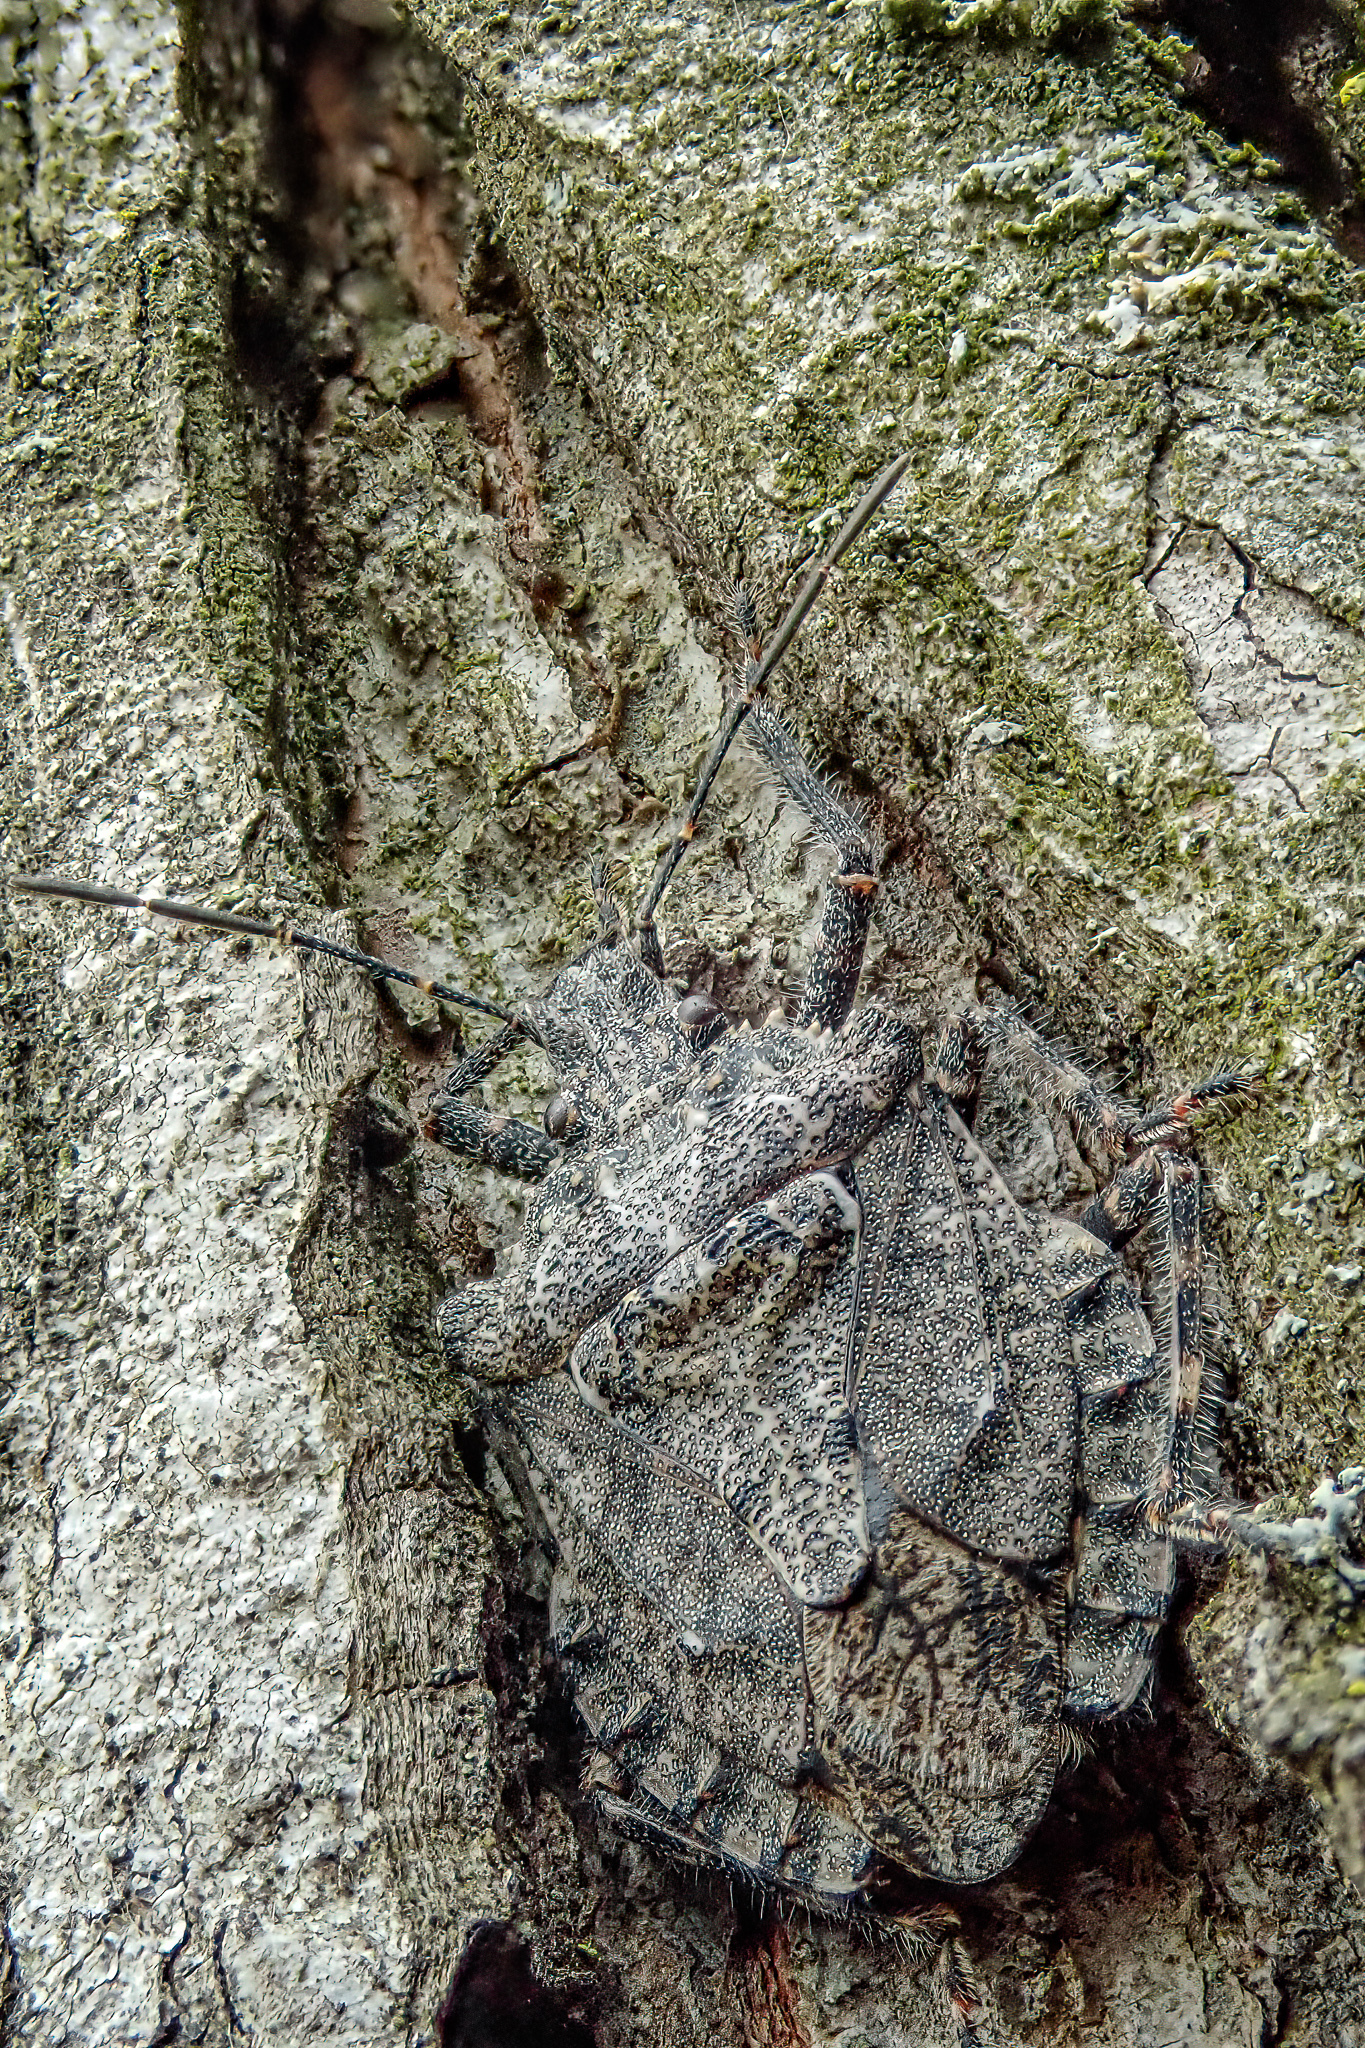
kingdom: Animalia
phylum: Arthropoda
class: Insecta
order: Hemiptera
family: Pentatomidae
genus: Brochymena
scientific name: Brochymena arborea
